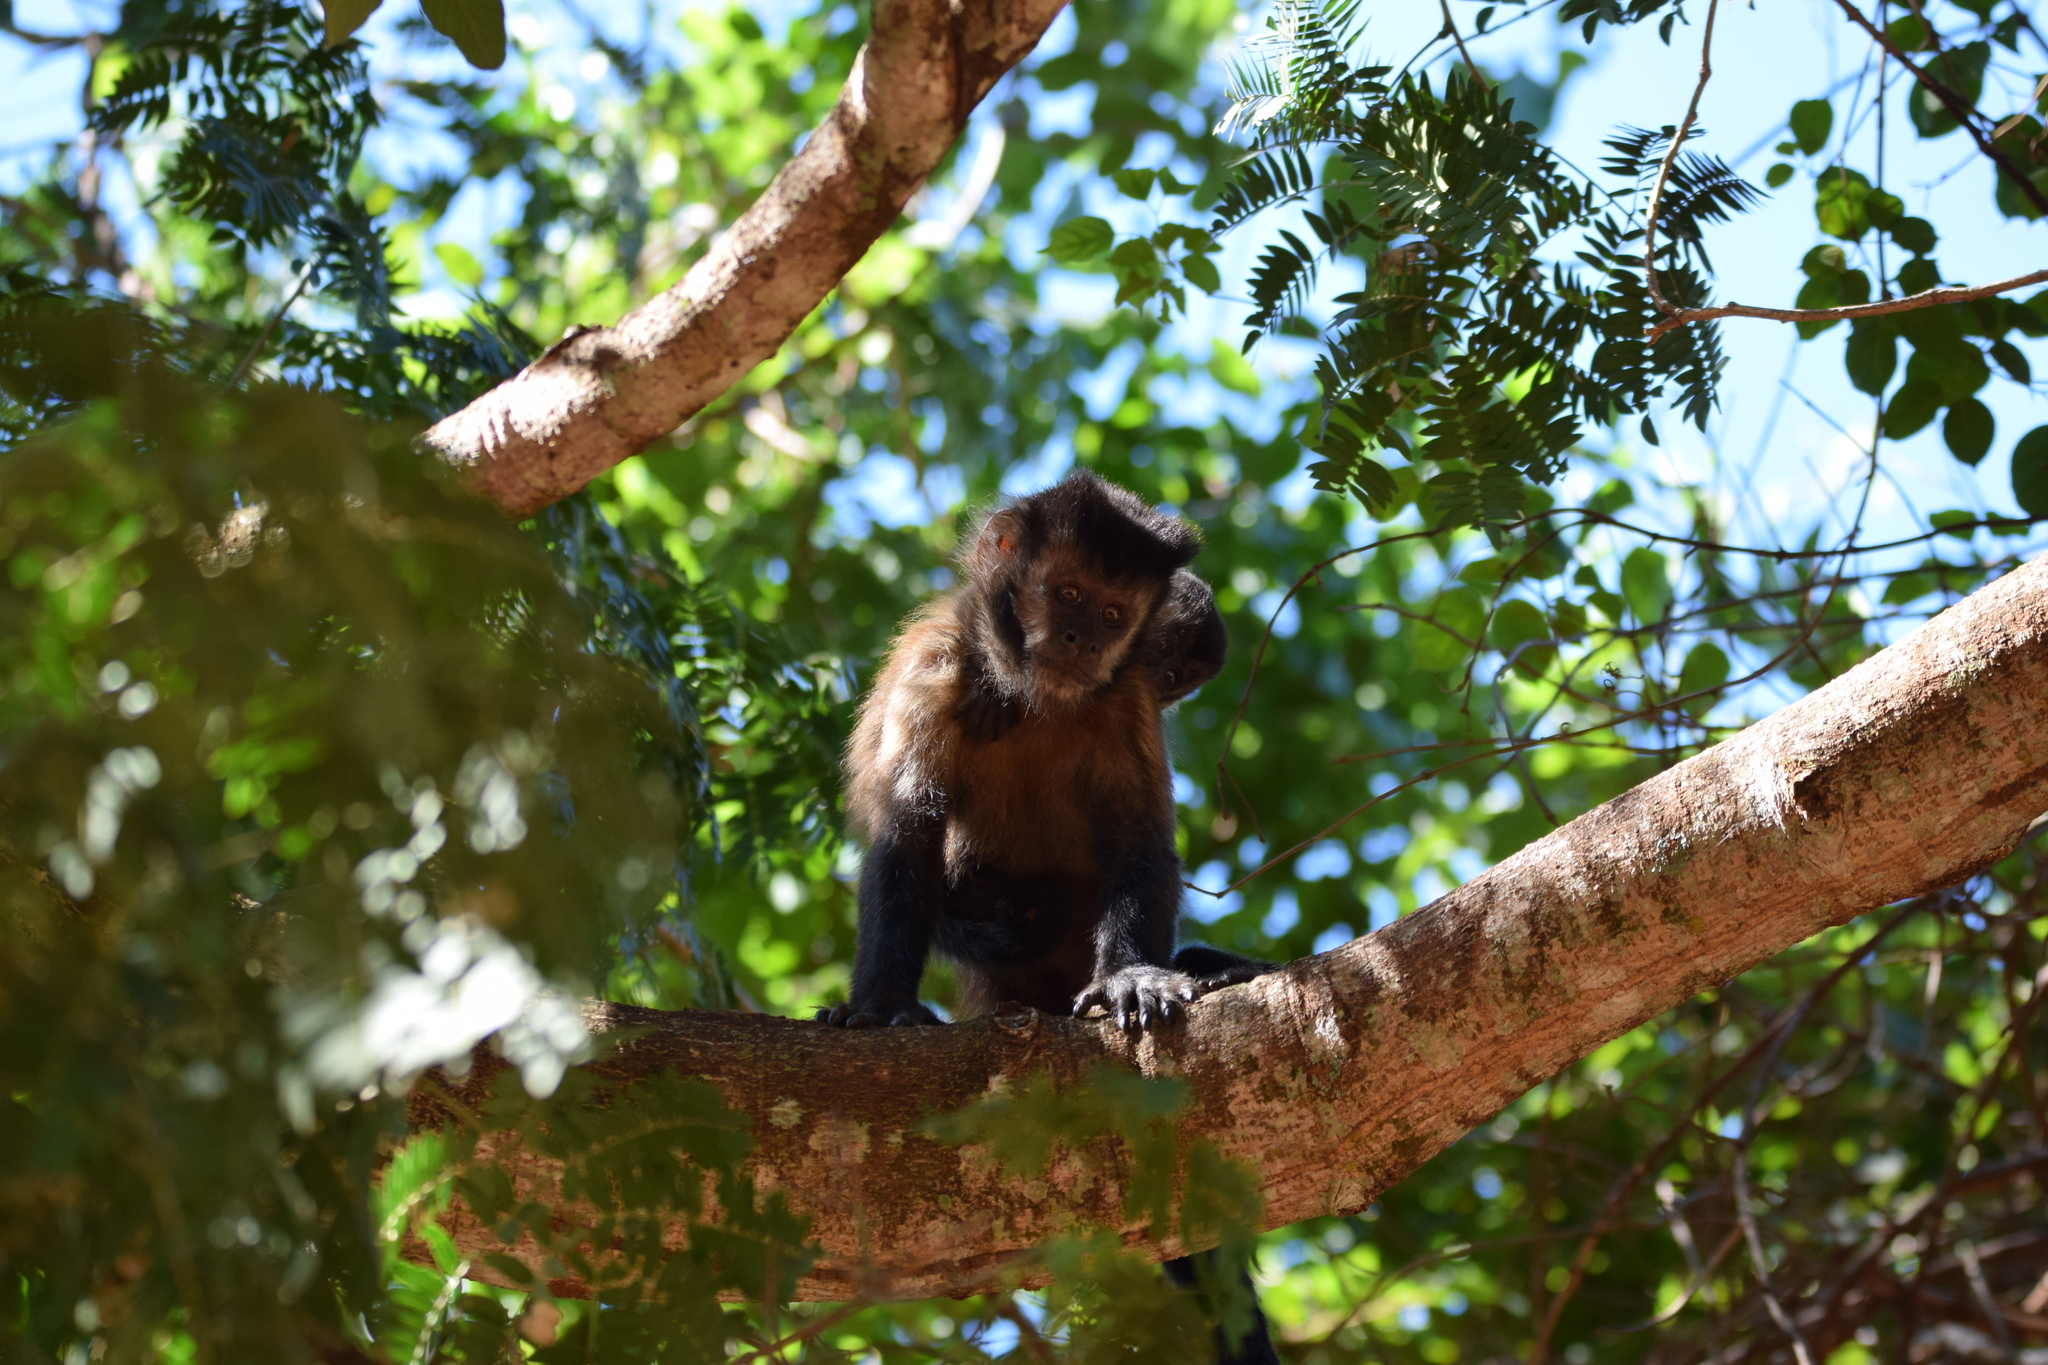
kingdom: Animalia
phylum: Chordata
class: Mammalia
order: Primates
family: Cebidae
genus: Sapajus
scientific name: Sapajus nigritus
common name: Black capuchin
